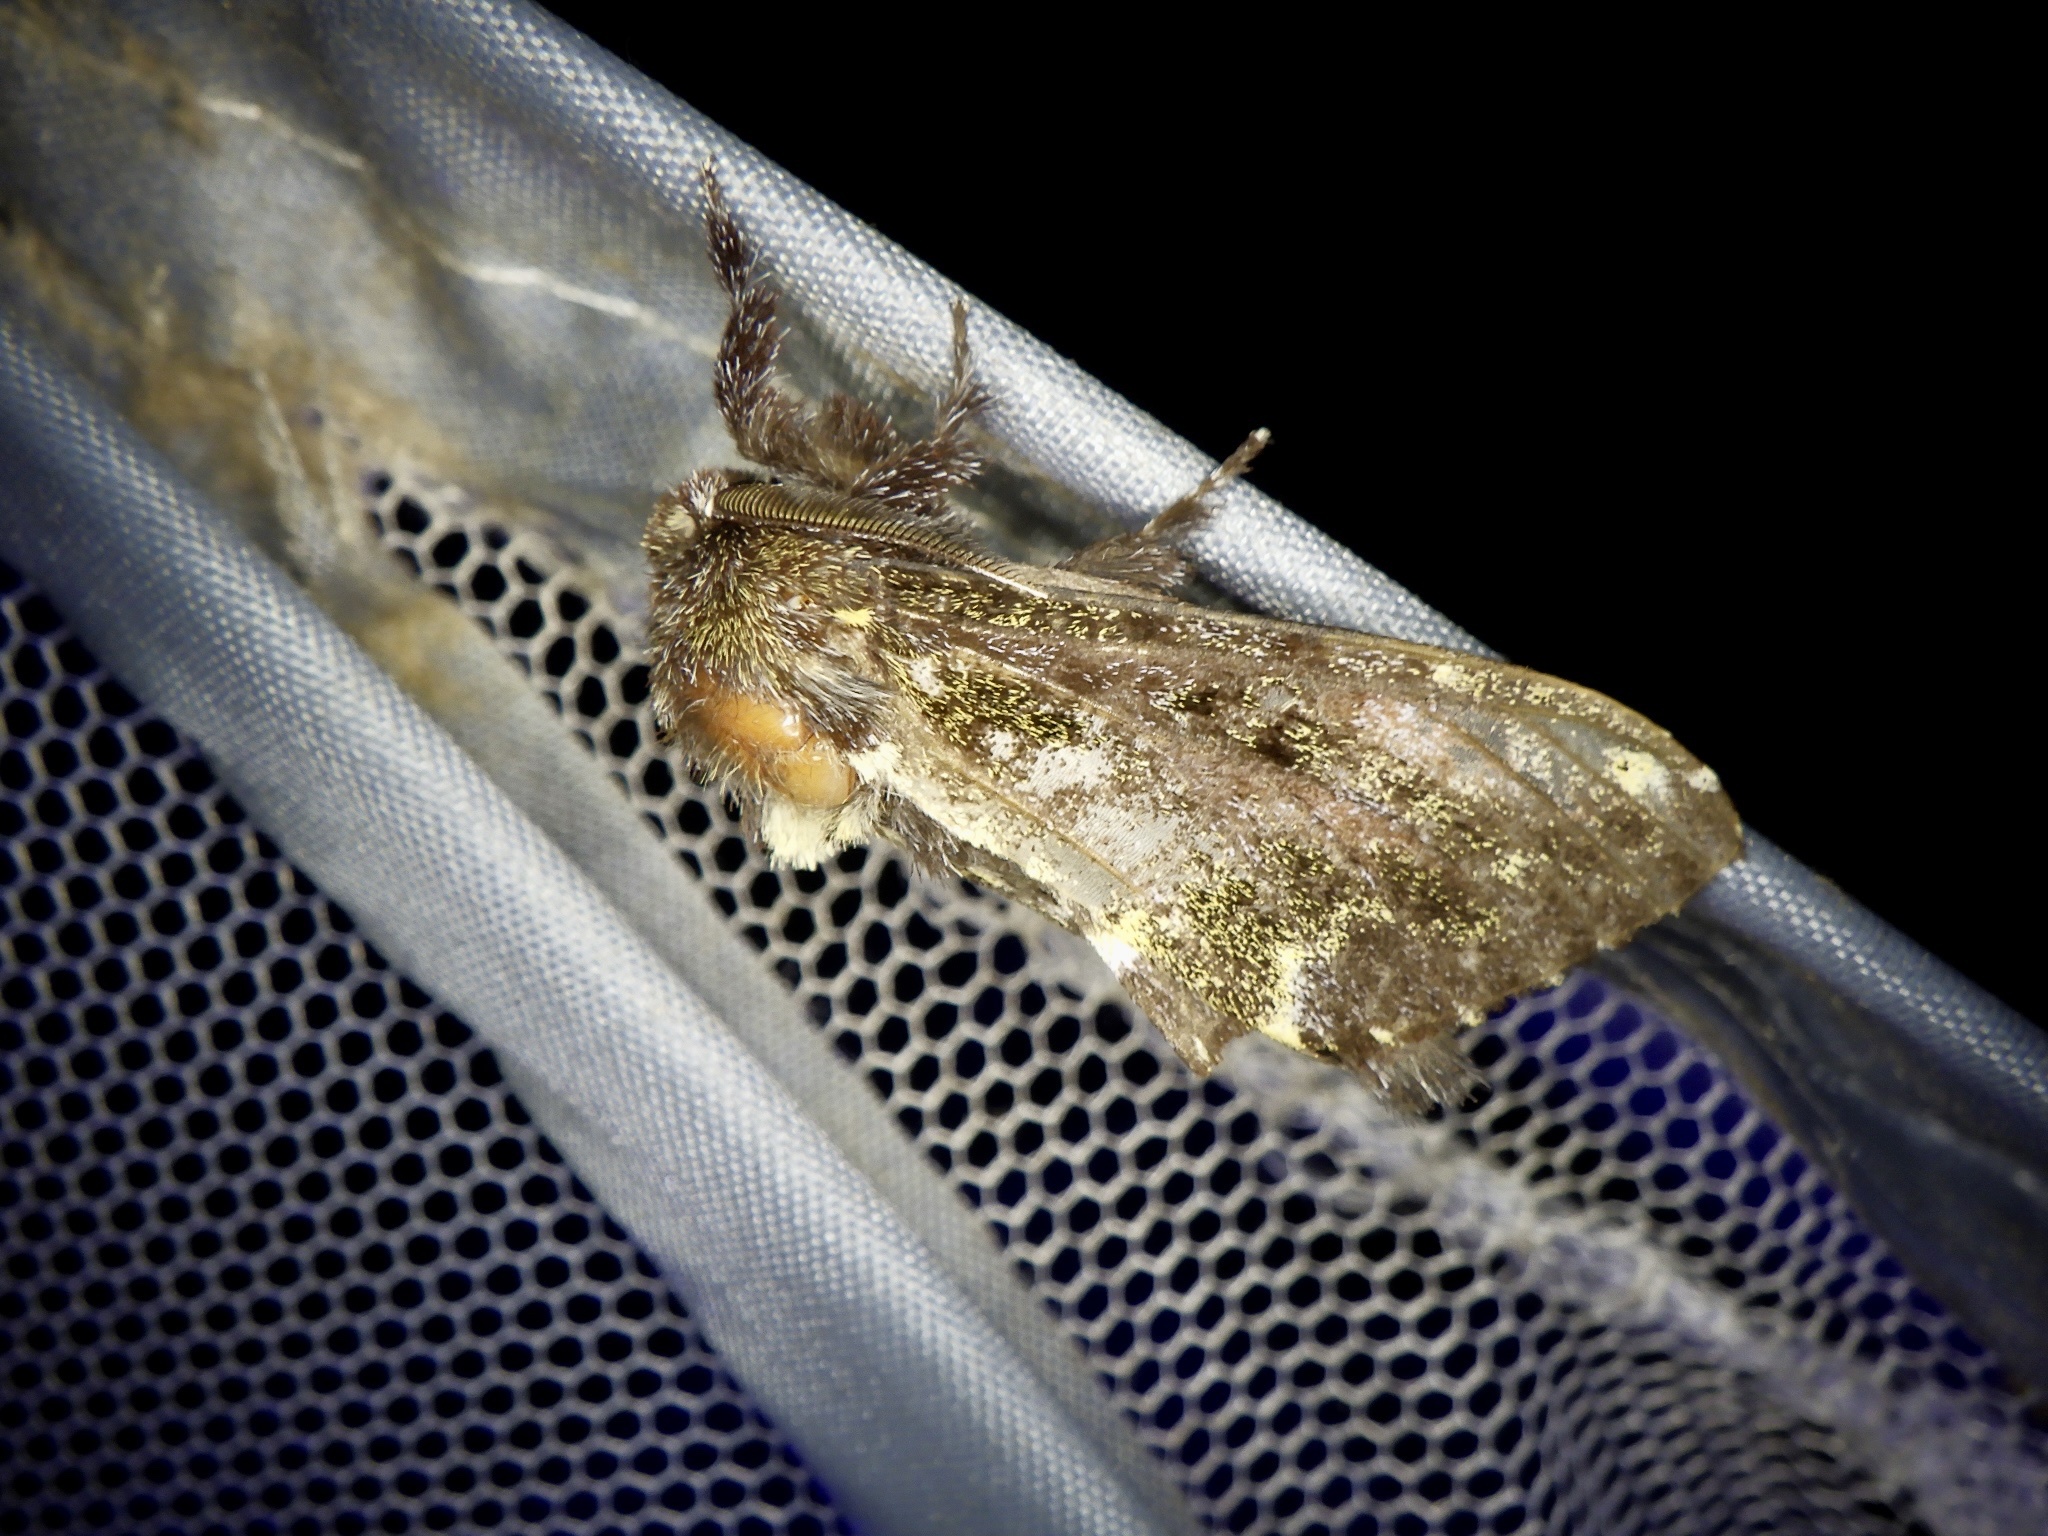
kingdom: Animalia
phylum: Arthropoda
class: Insecta
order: Lepidoptera
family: Notodontidae
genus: Zaranga
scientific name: Zaranga permagna
